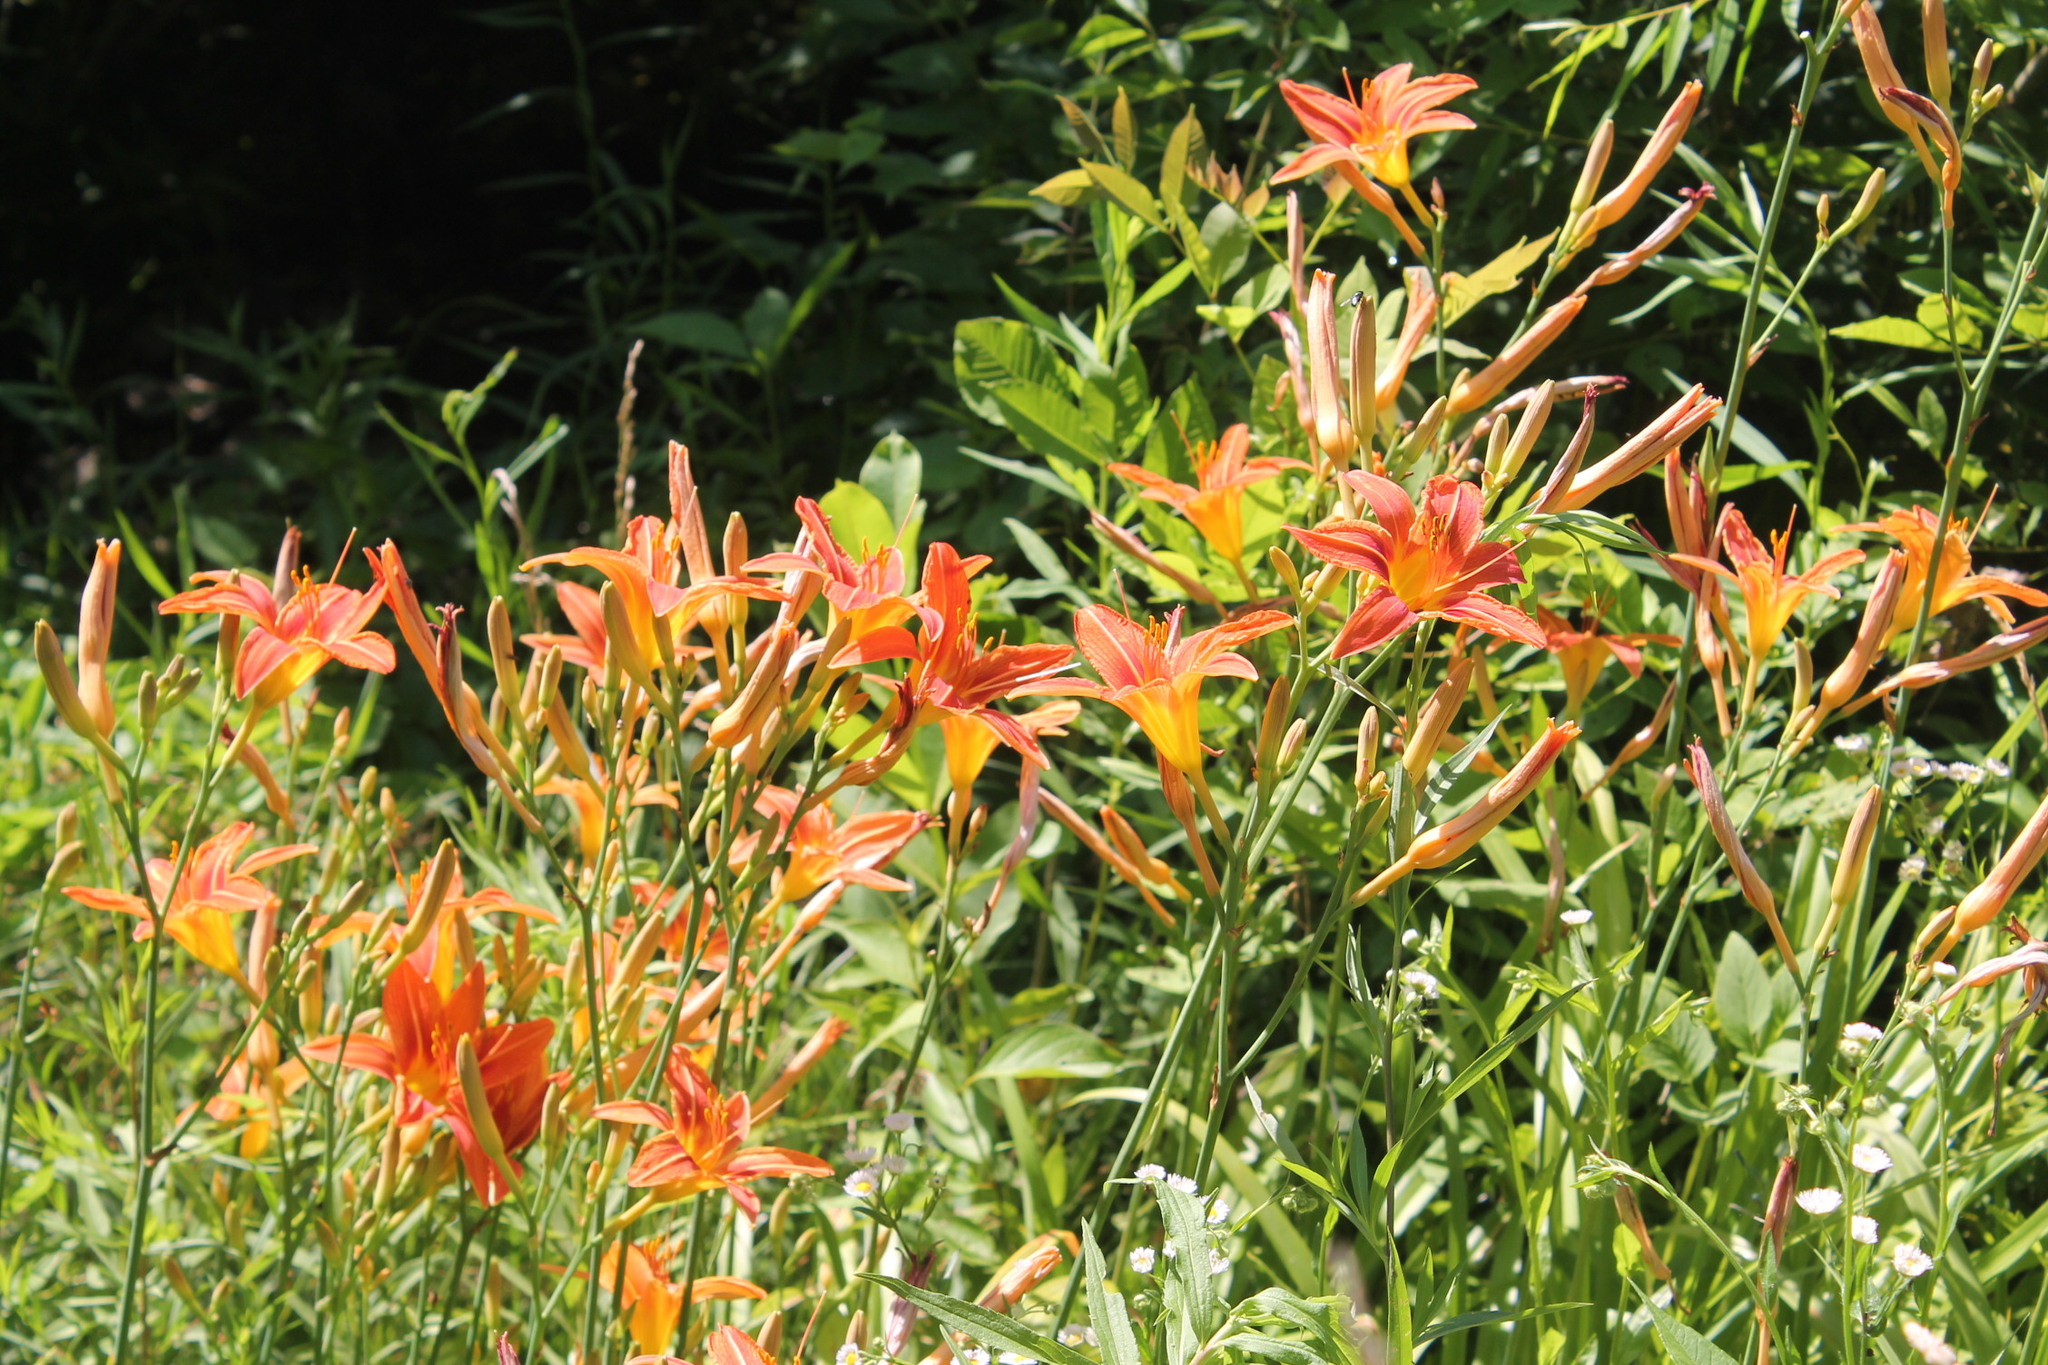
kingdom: Plantae
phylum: Tracheophyta
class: Liliopsida
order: Asparagales
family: Asphodelaceae
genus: Hemerocallis
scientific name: Hemerocallis fulva
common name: Orange day-lily
